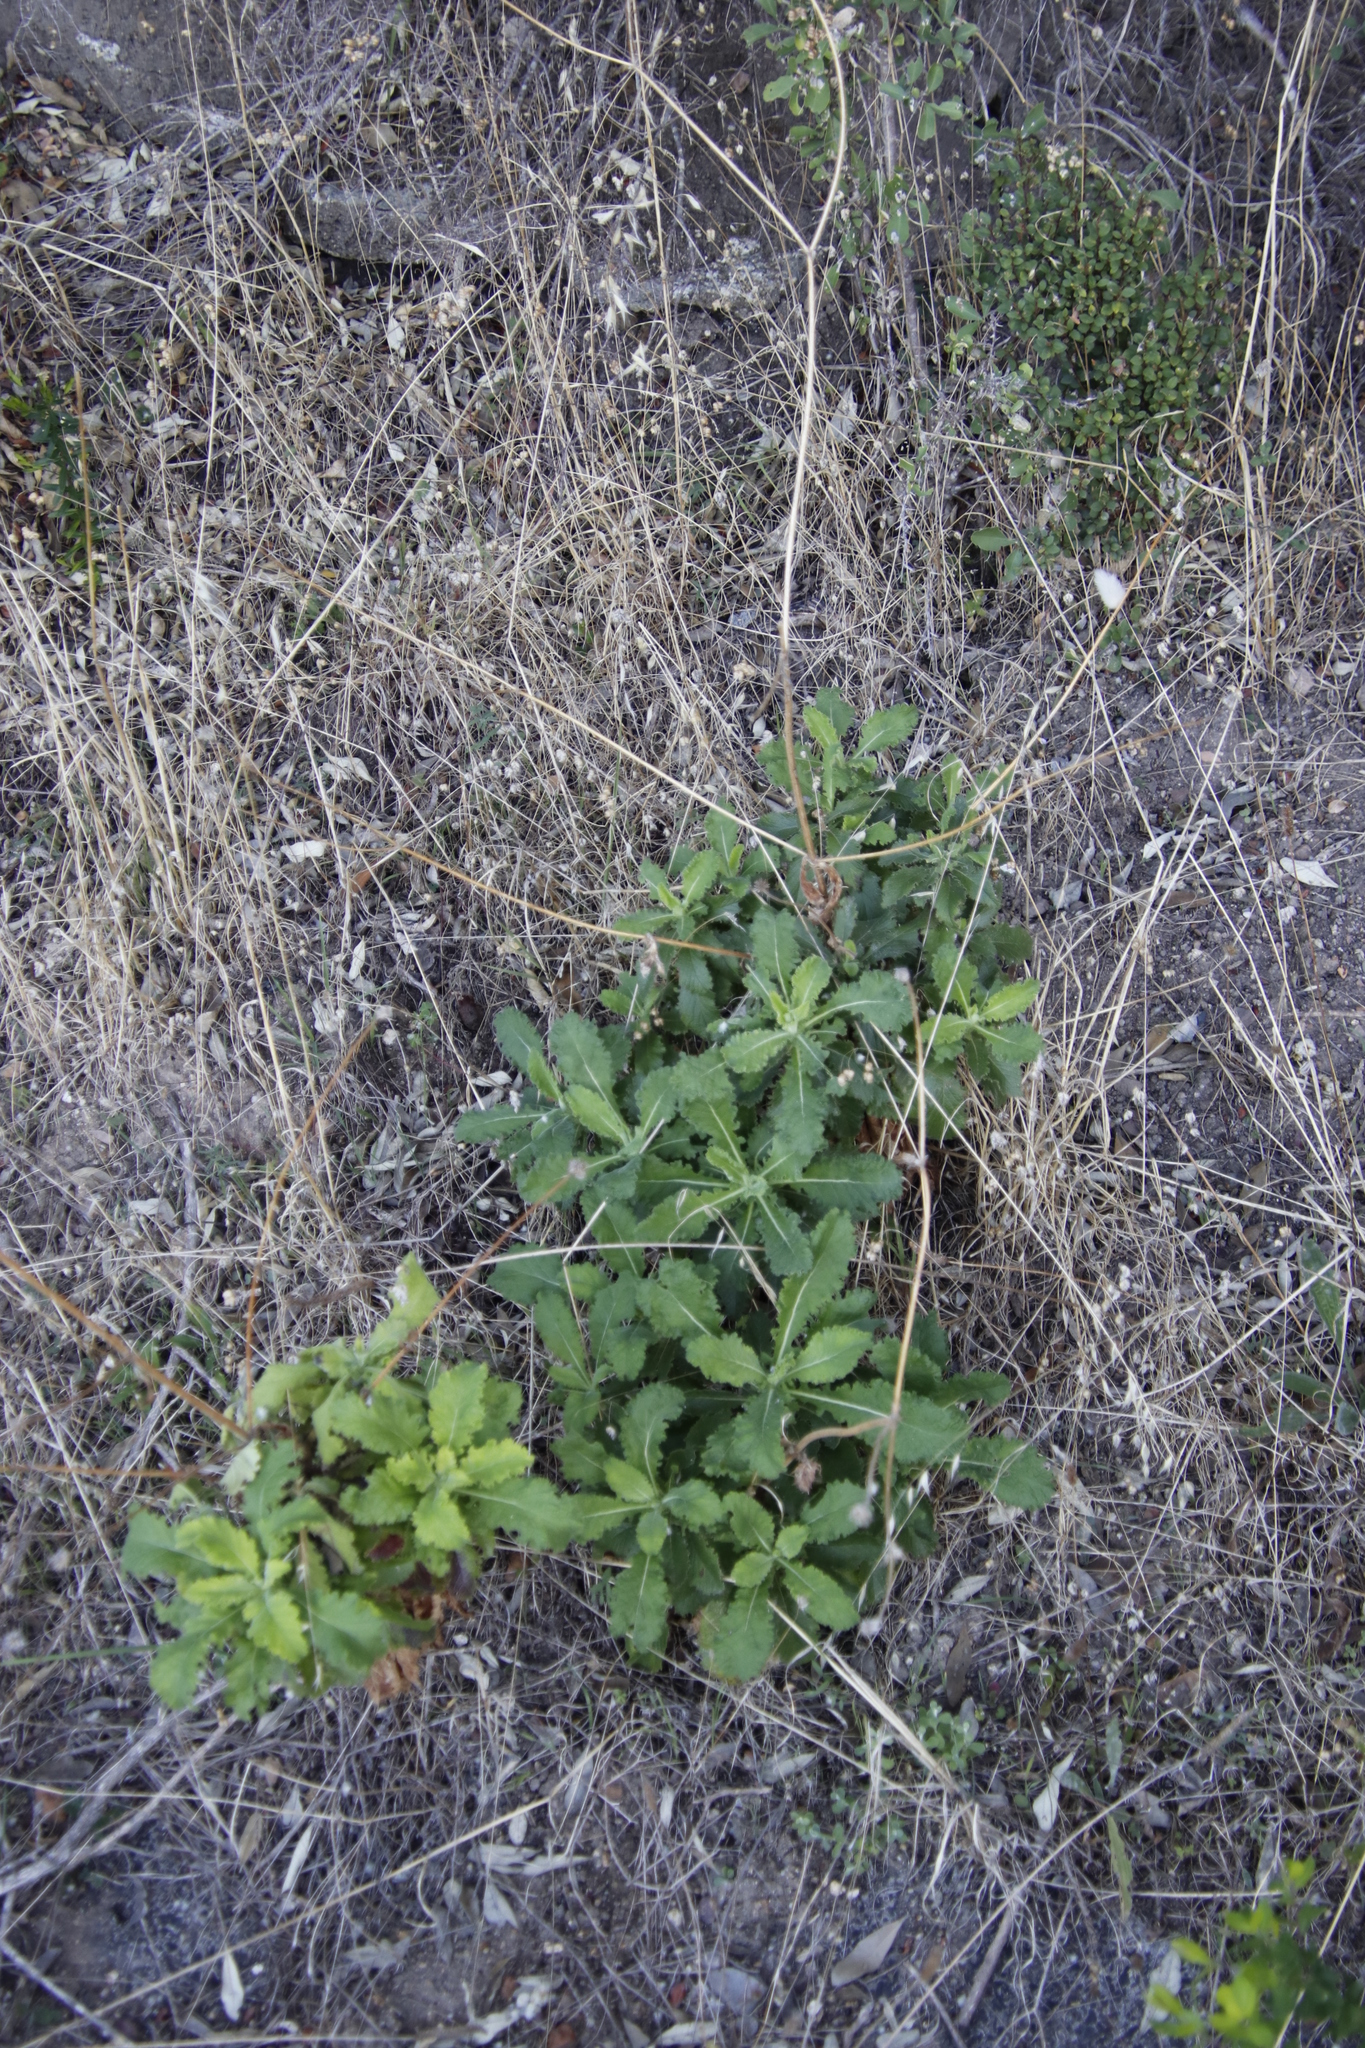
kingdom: Plantae
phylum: Tracheophyta
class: Magnoliopsida
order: Dipsacales
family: Caprifoliaceae
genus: Scabiosa
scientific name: Scabiosa africana
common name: Cape scabious
